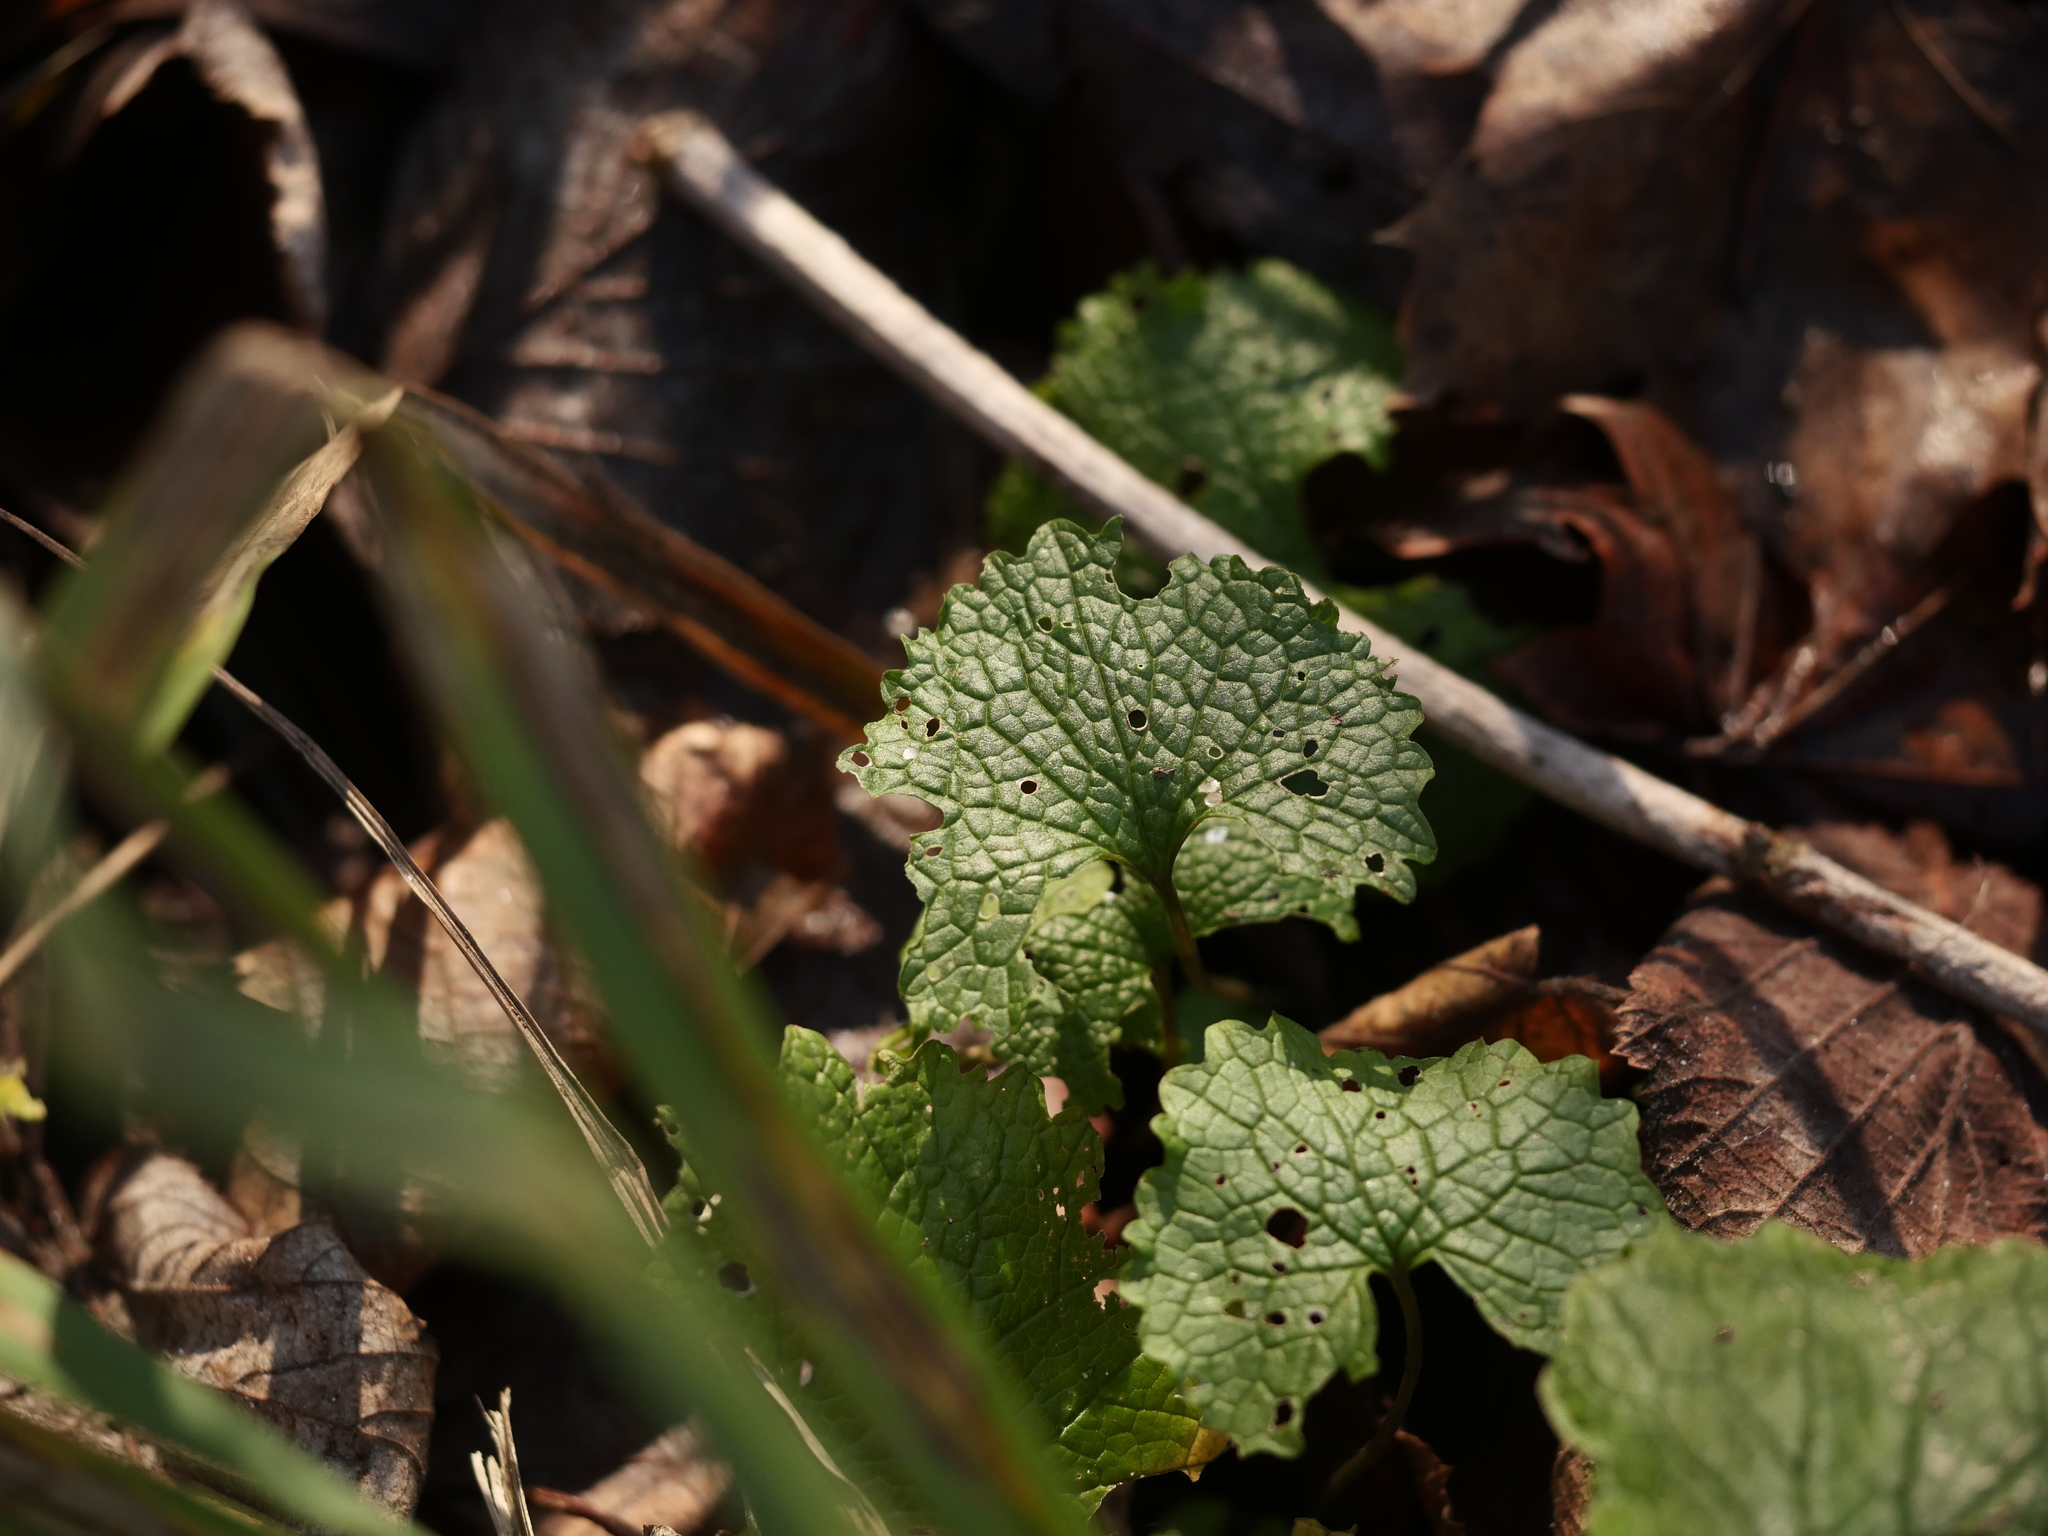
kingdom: Plantae
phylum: Tracheophyta
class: Magnoliopsida
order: Brassicales
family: Brassicaceae
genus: Alliaria
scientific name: Alliaria petiolata
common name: Garlic mustard
